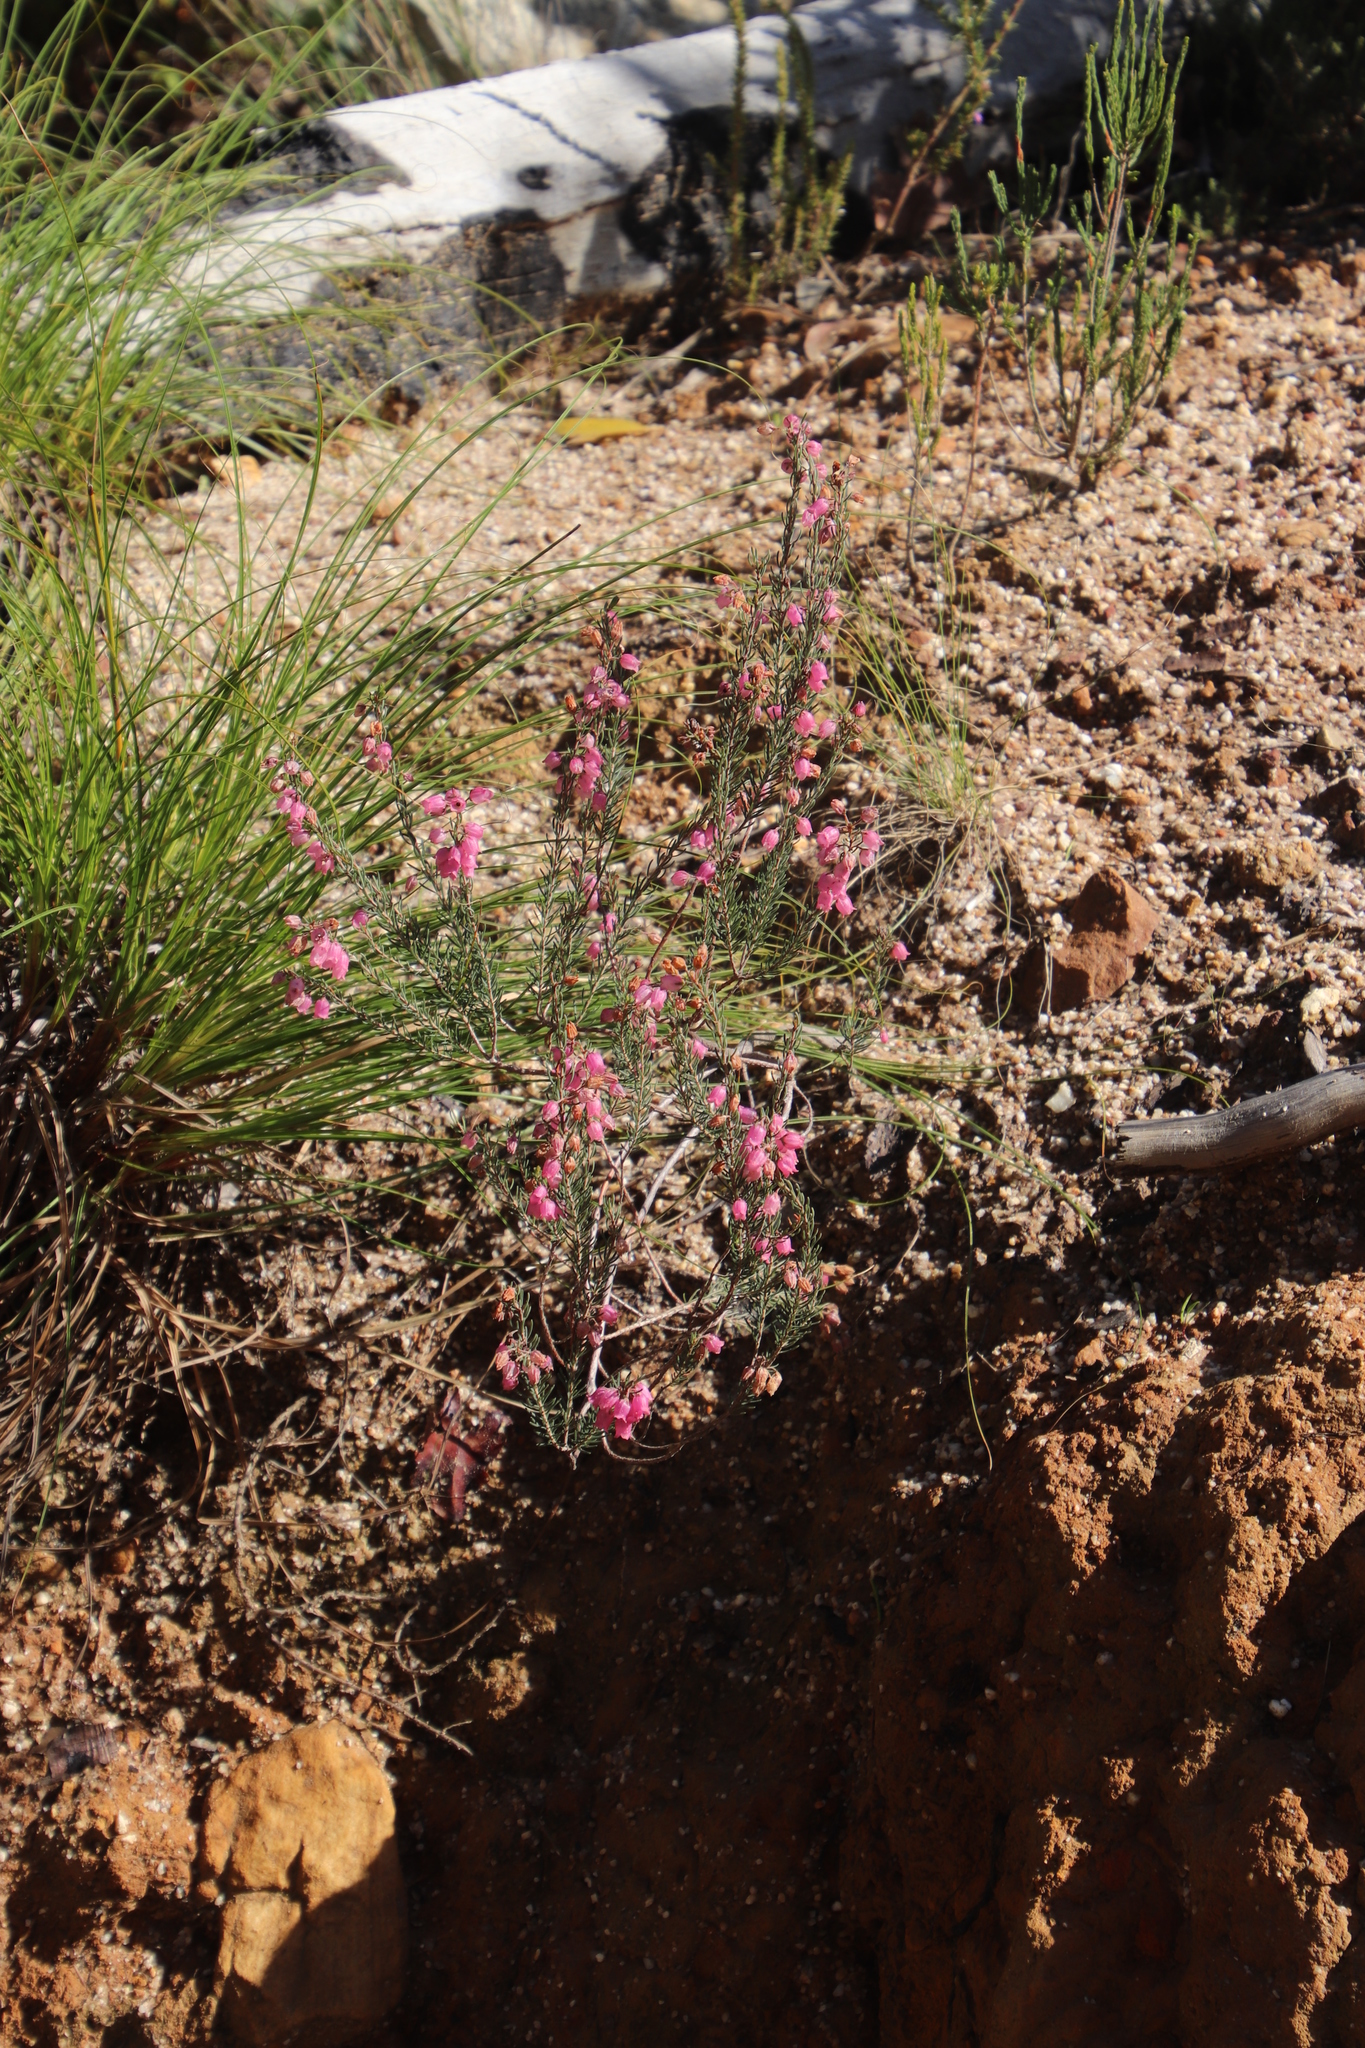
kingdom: Plantae
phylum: Tracheophyta
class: Magnoliopsida
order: Ericales
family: Ericaceae
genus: Erica
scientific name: Erica viscaria
